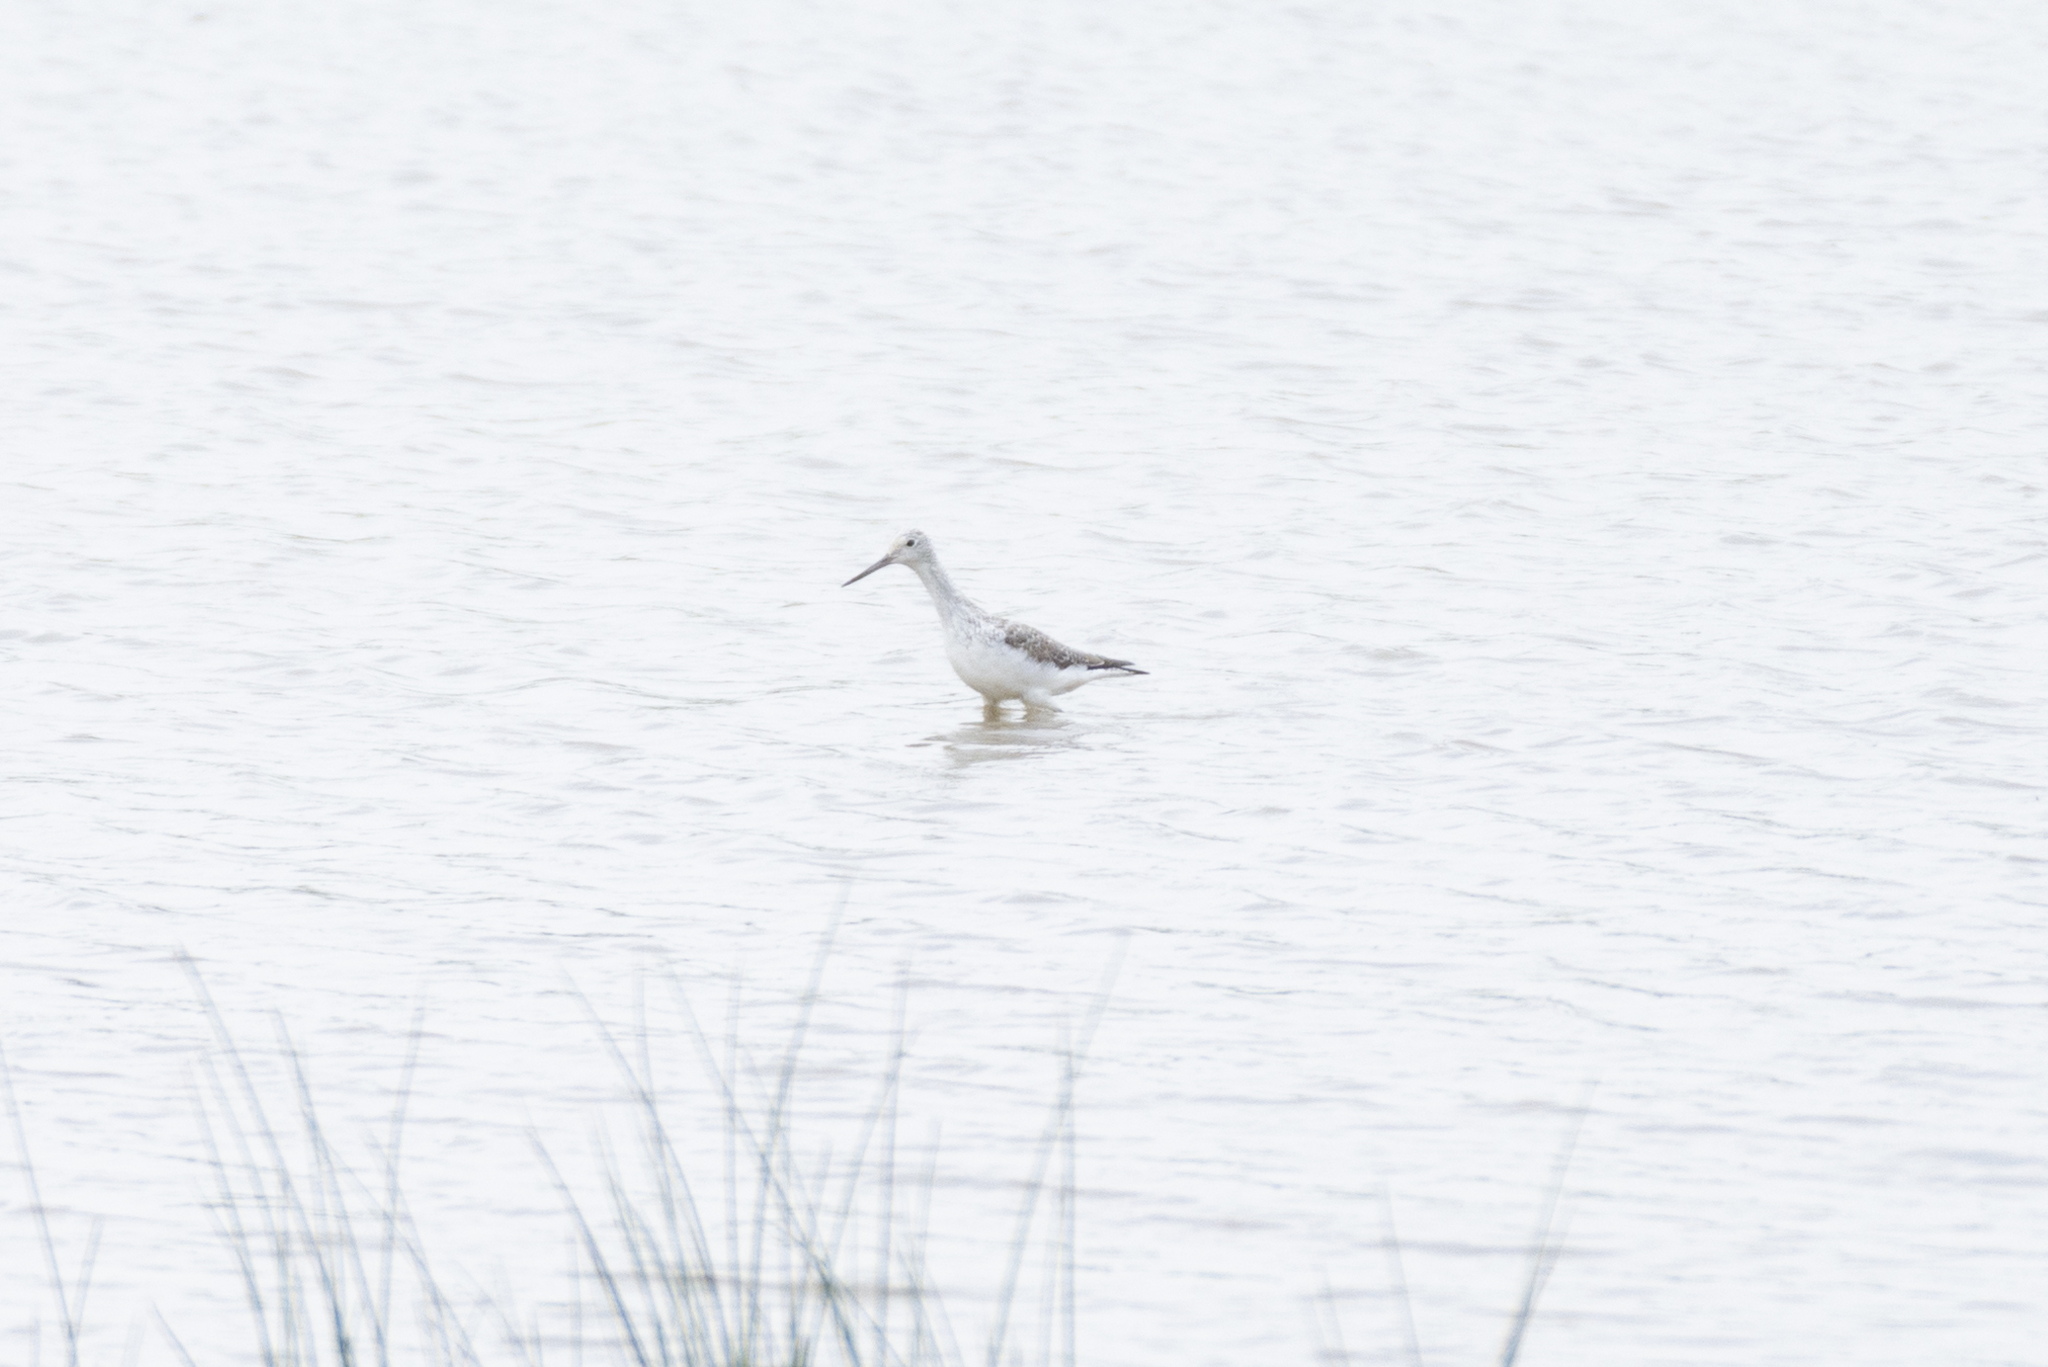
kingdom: Animalia
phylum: Chordata
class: Aves
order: Charadriiformes
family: Scolopacidae
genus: Tringa
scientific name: Tringa nebularia
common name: Common greenshank
